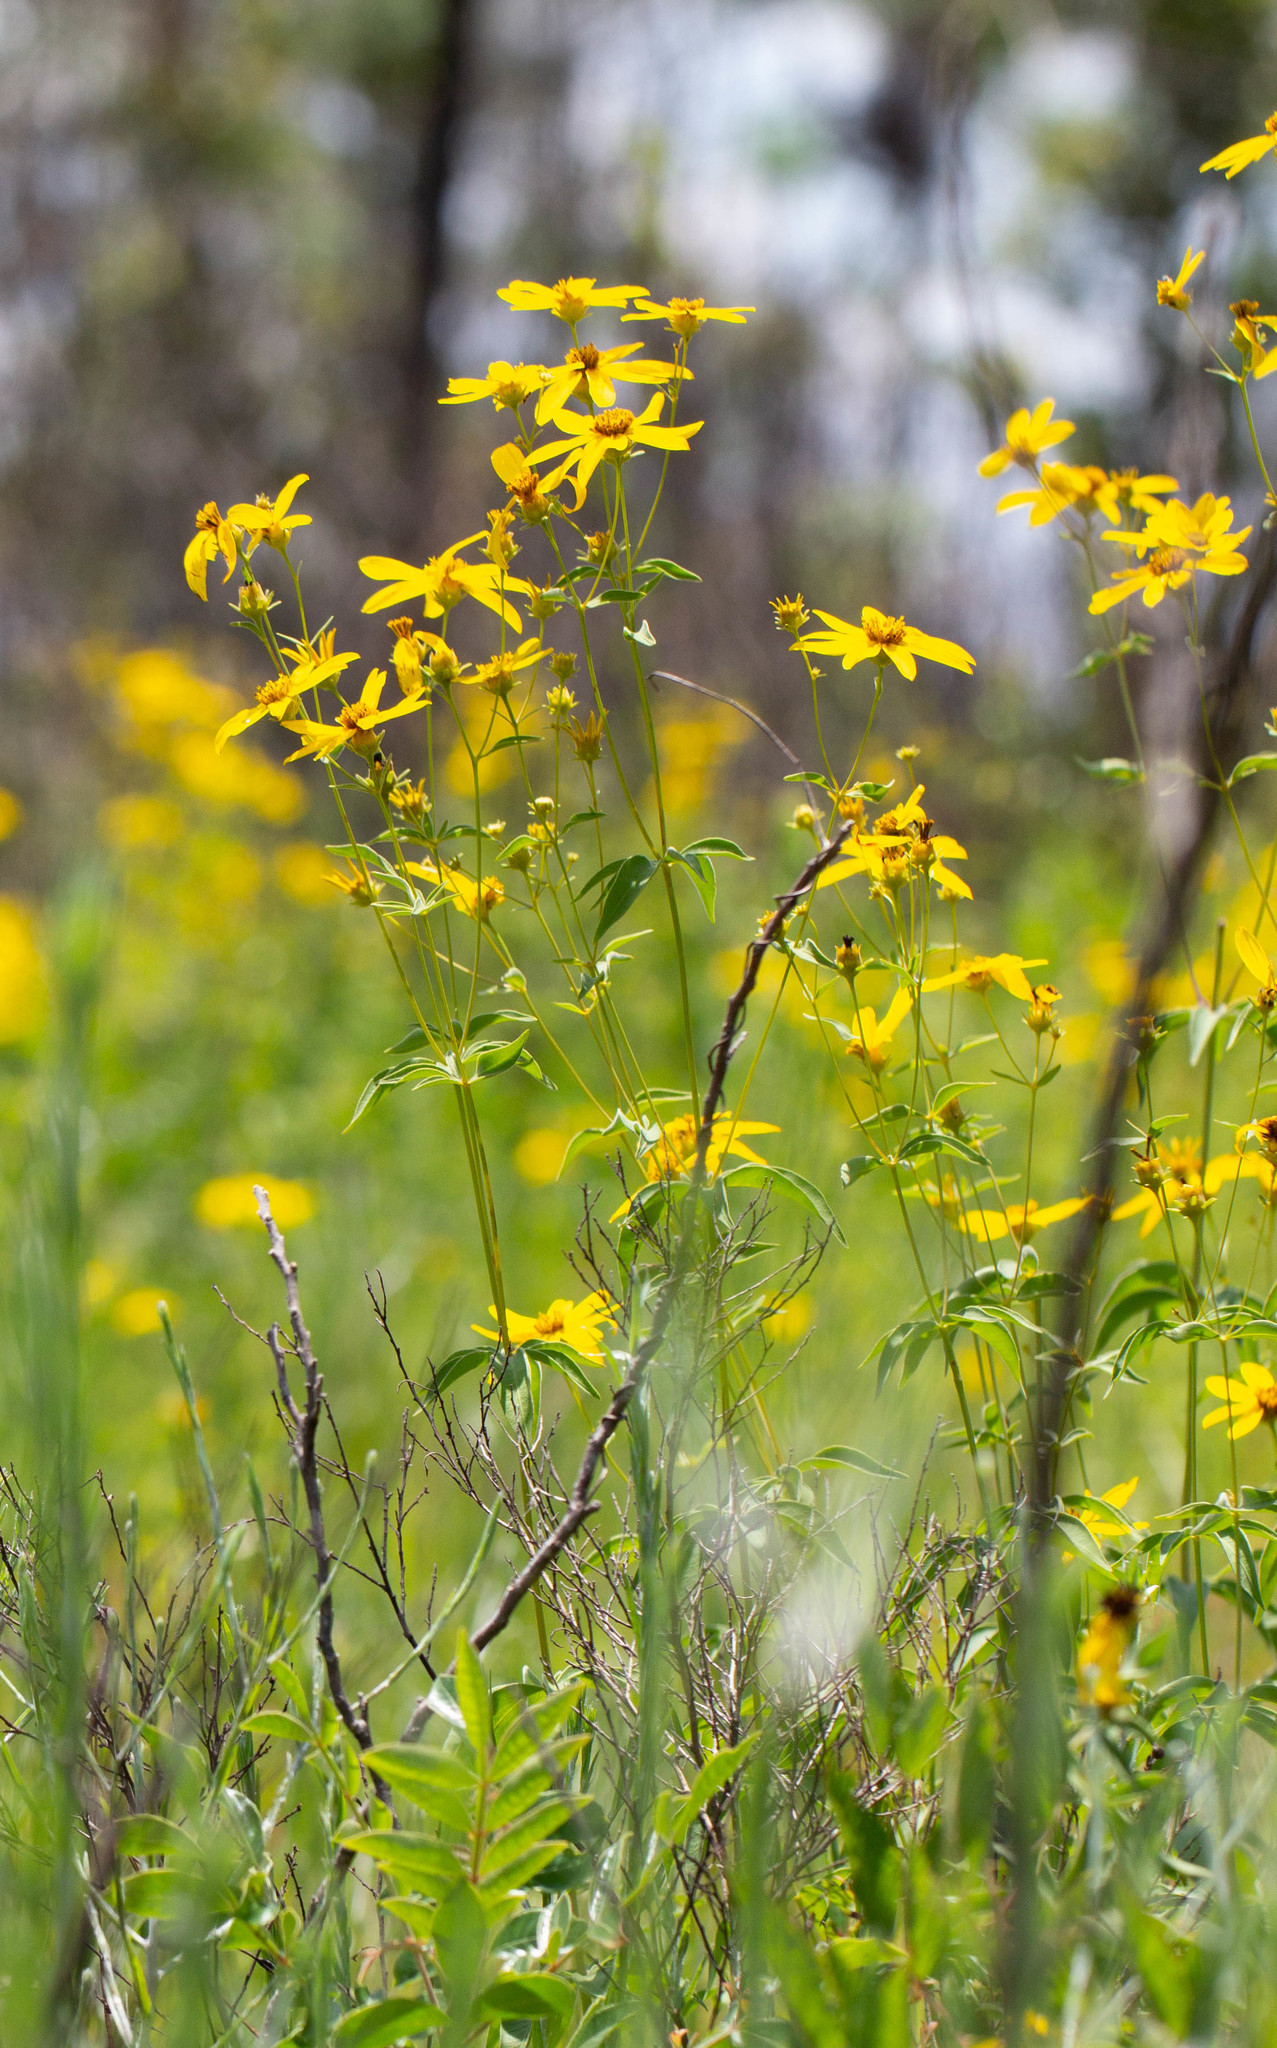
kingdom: Plantae
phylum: Tracheophyta
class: Magnoliopsida
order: Asterales
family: Asteraceae
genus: Coreopsis
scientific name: Coreopsis major
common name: Forest tickseed
